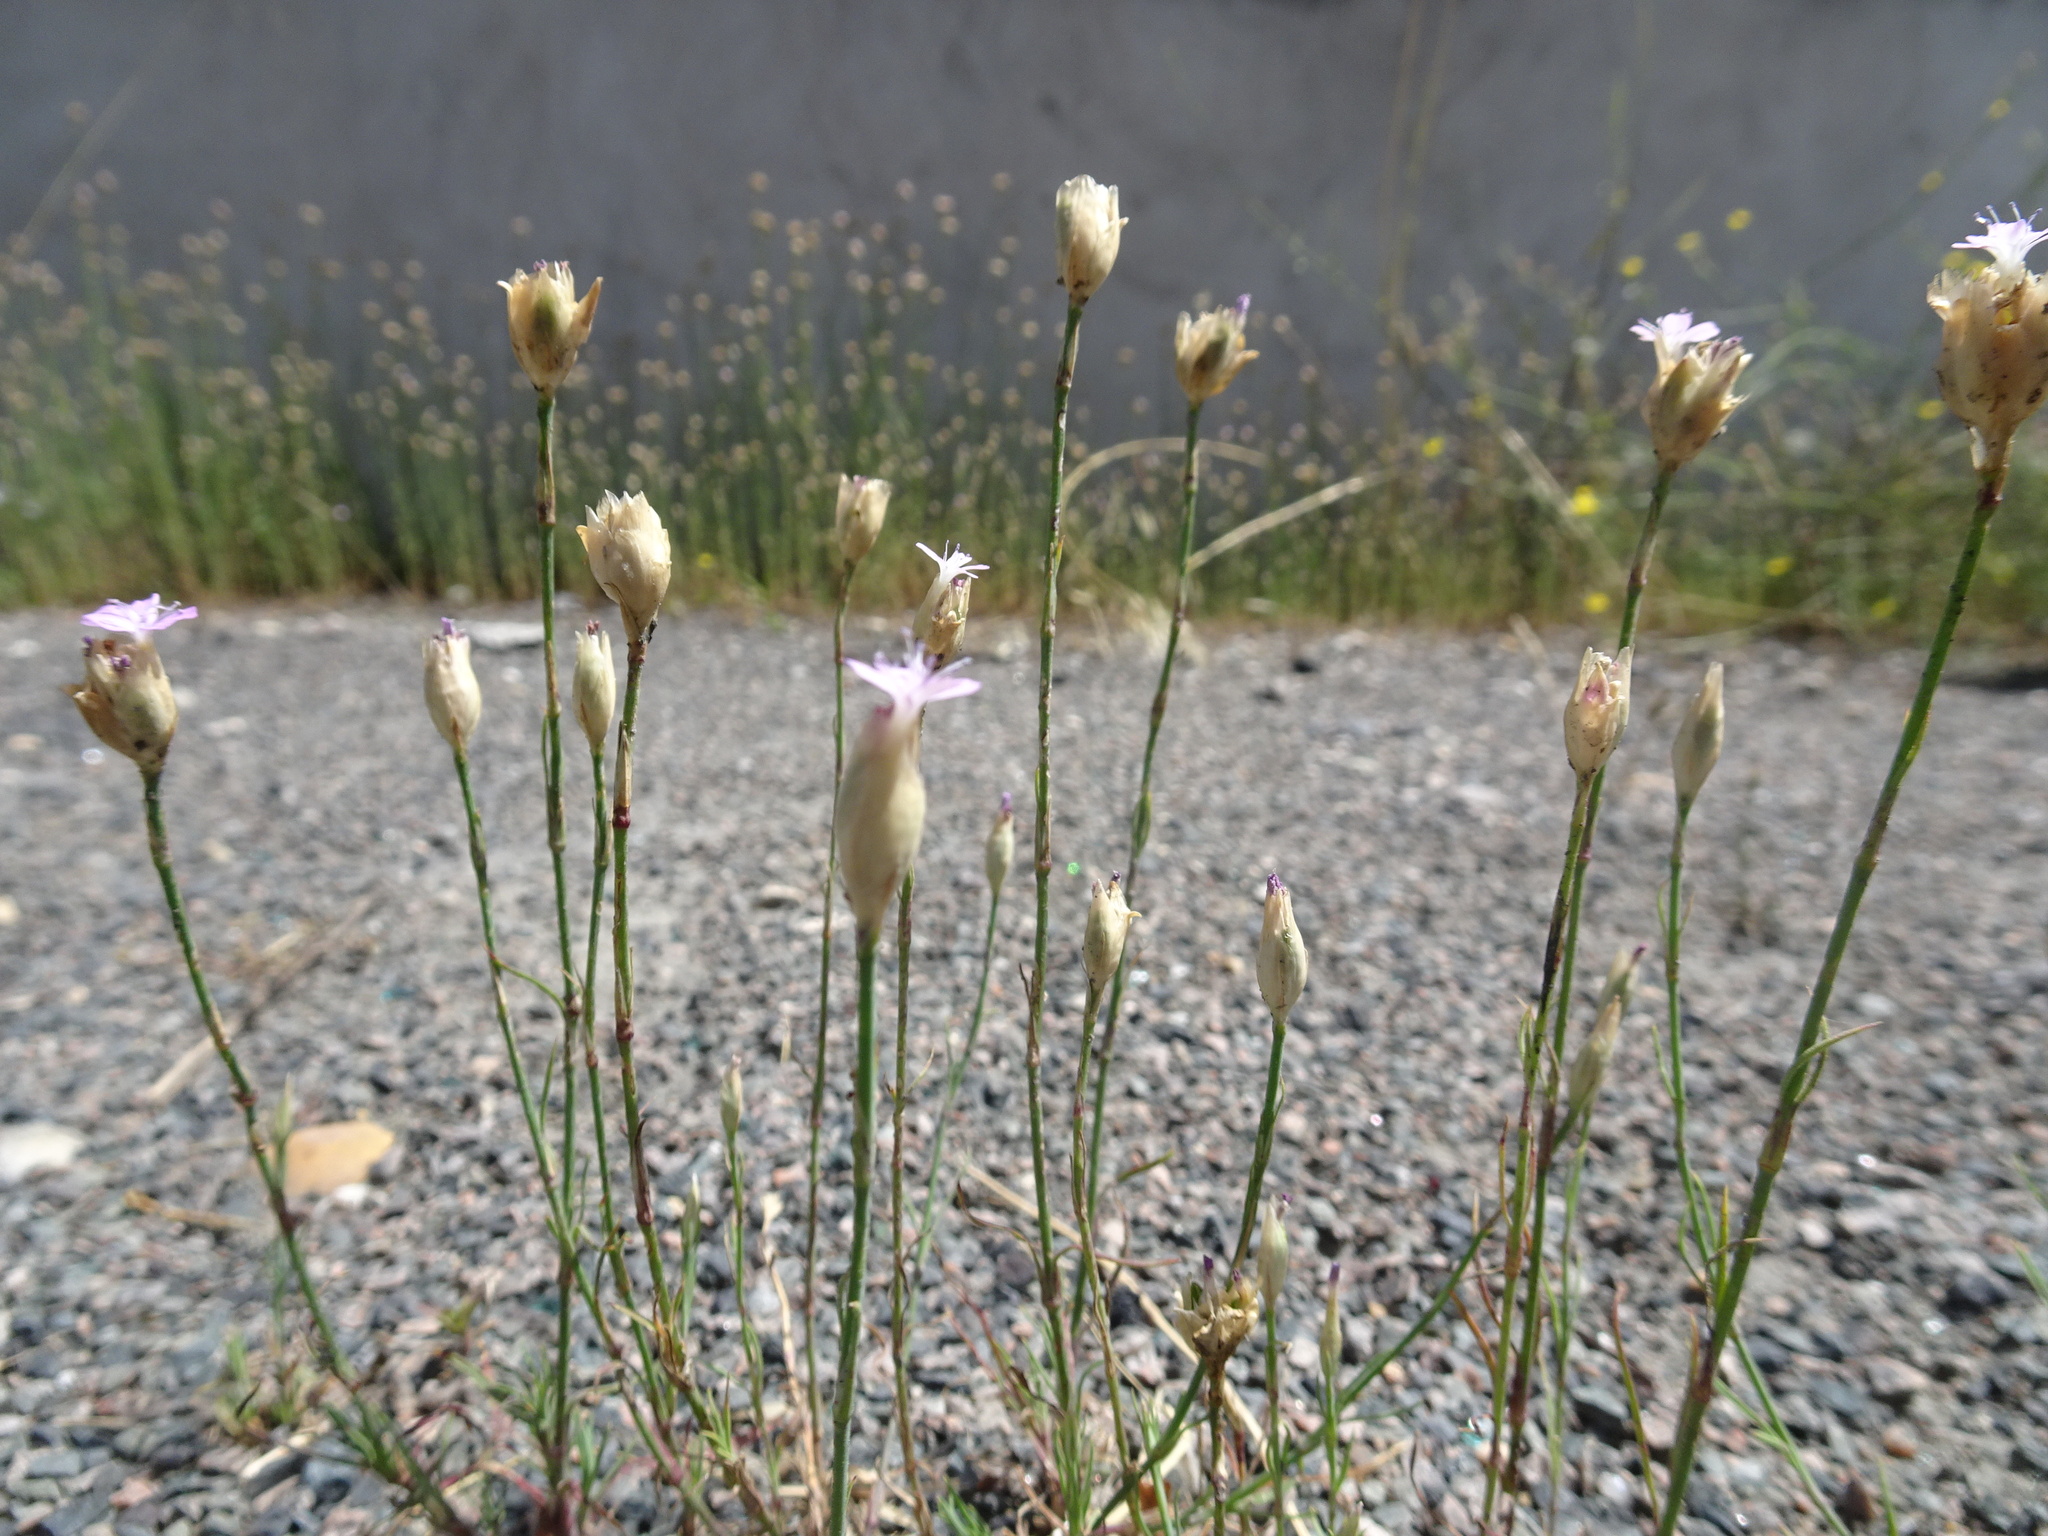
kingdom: Plantae
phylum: Tracheophyta
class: Magnoliopsida
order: Caryophyllales
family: Caryophyllaceae
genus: Petrorhagia
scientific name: Petrorhagia prolifera
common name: Proliferous pink
